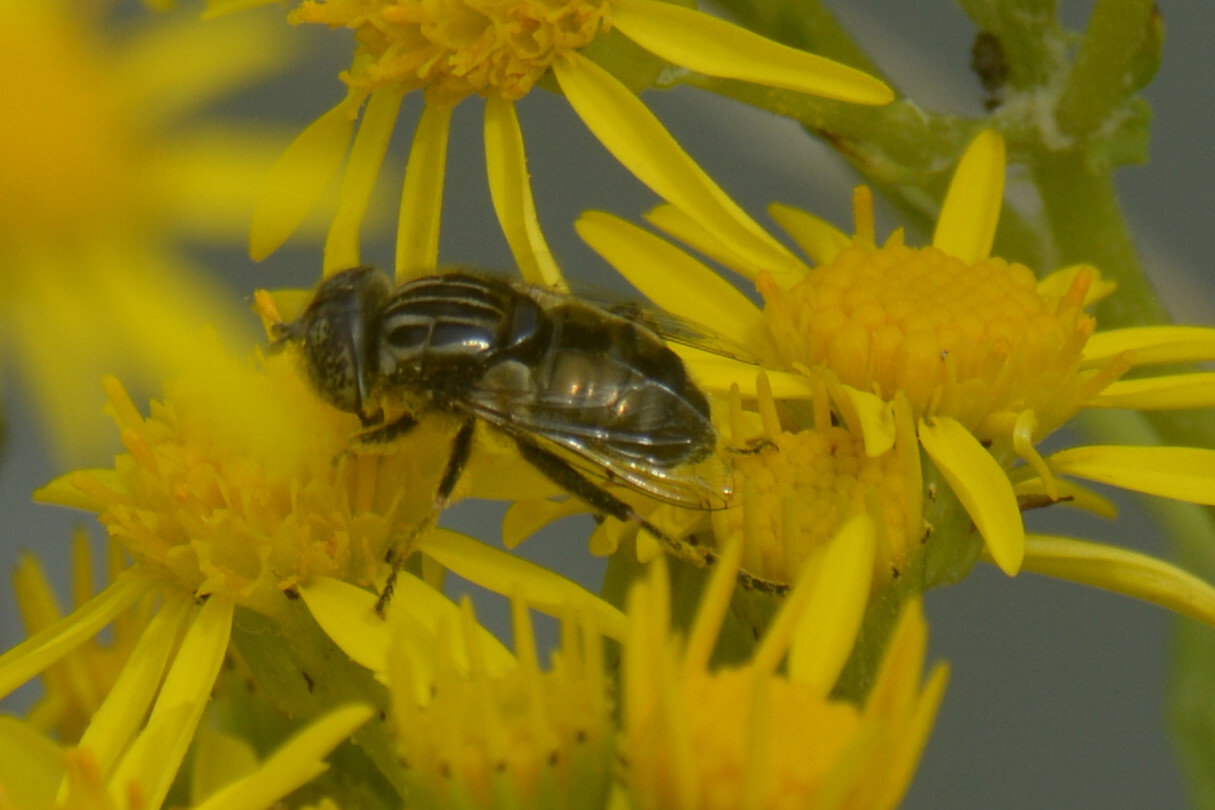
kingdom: Animalia
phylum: Arthropoda
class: Insecta
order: Diptera
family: Syrphidae
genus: Eristalinus
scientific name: Eristalinus sepulchralis
